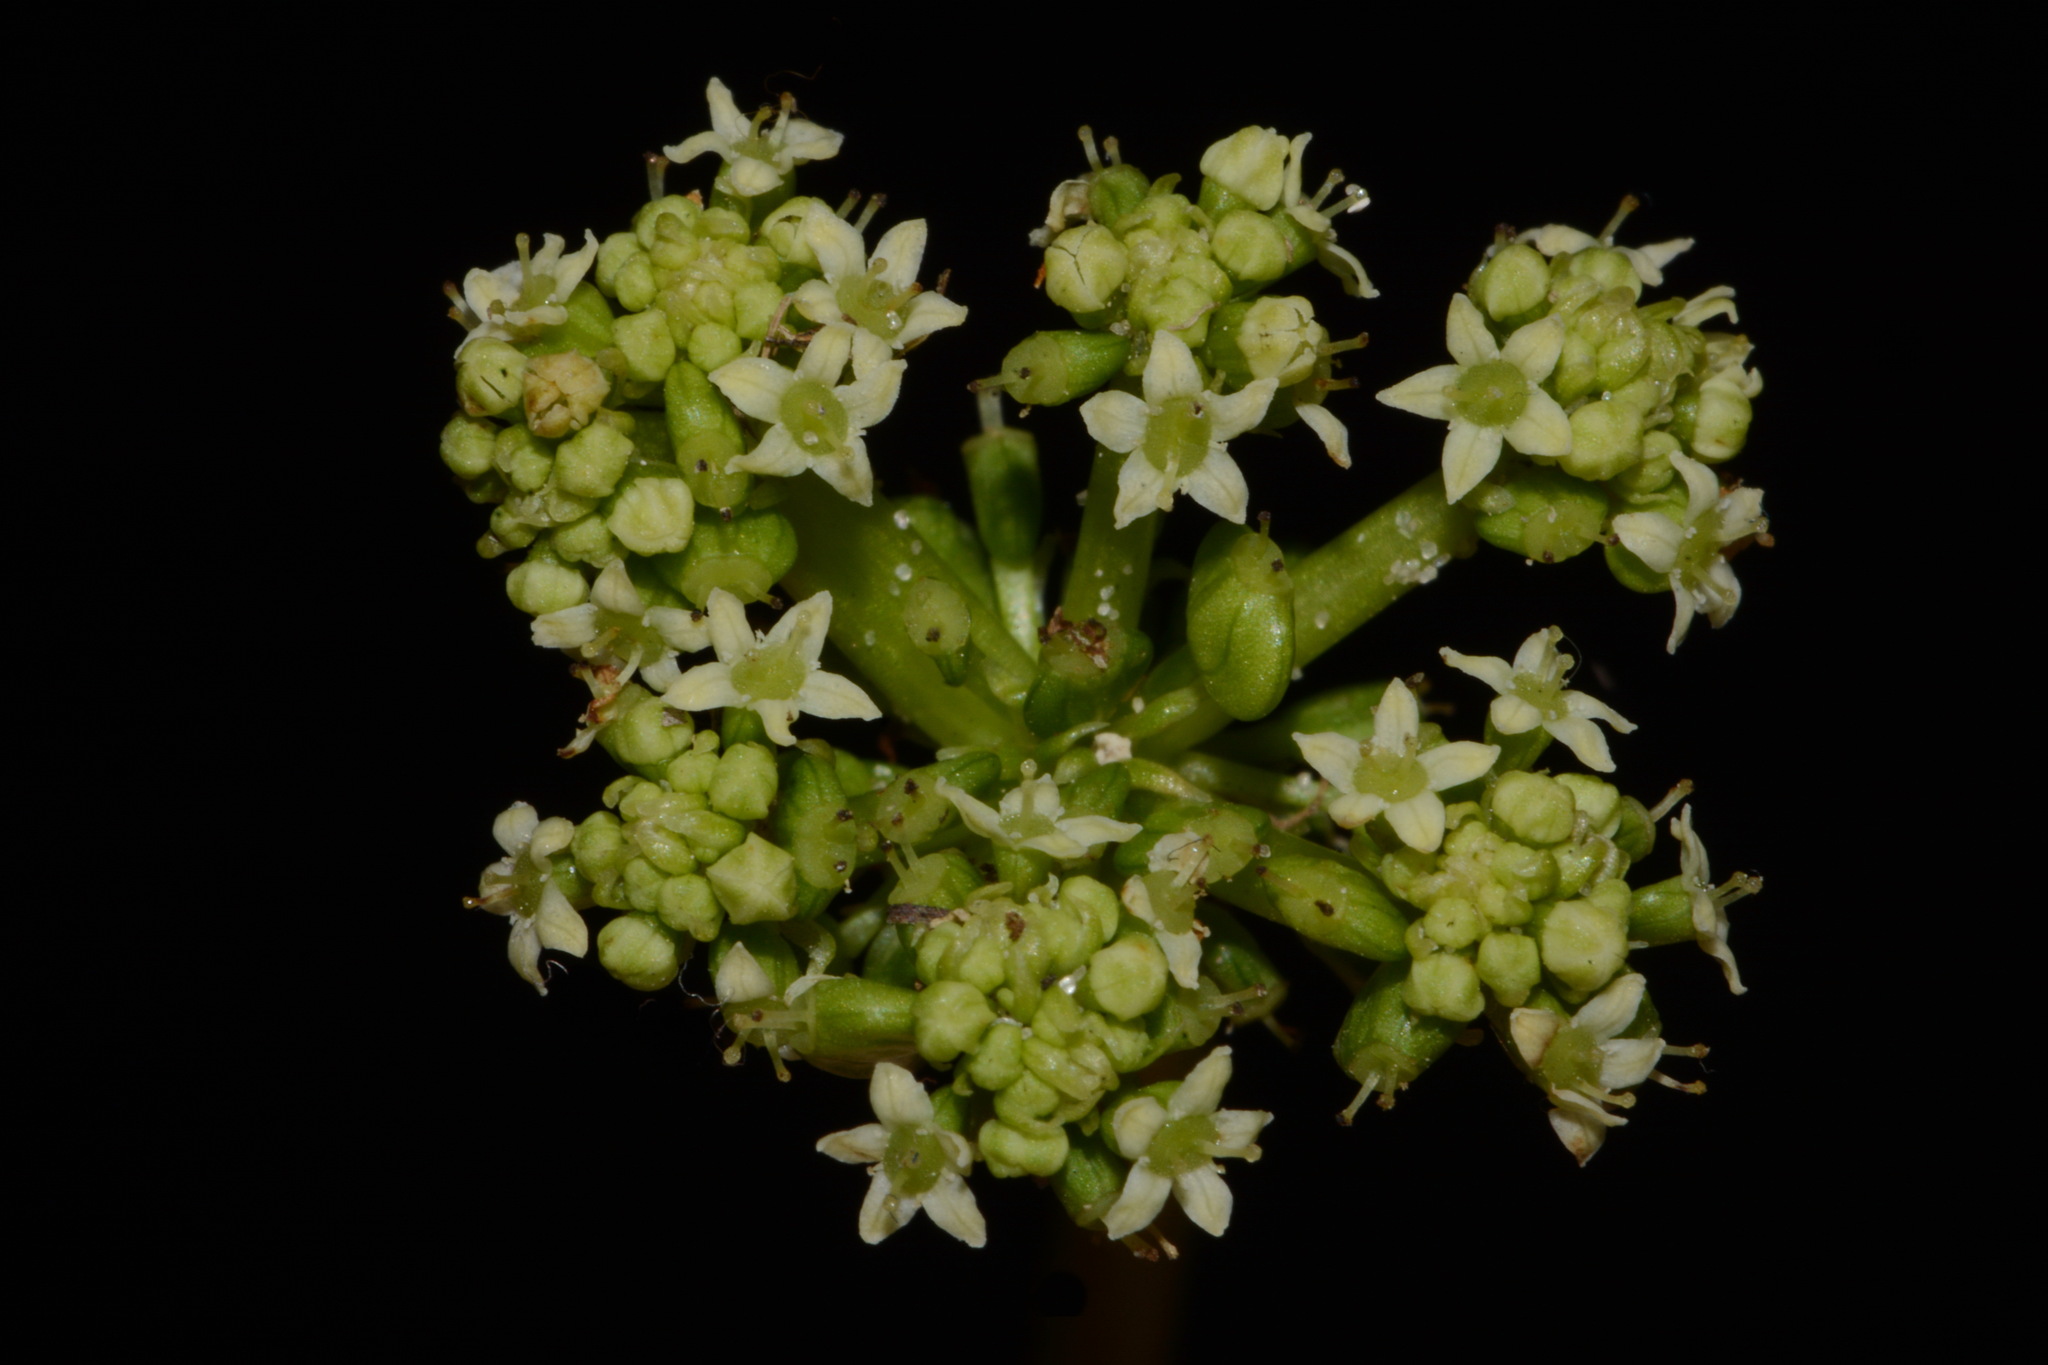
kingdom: Plantae
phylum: Tracheophyta
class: Magnoliopsida
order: Apiales
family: Araliaceae
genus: Hydrocotyle
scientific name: Hydrocotyle bonariensis
